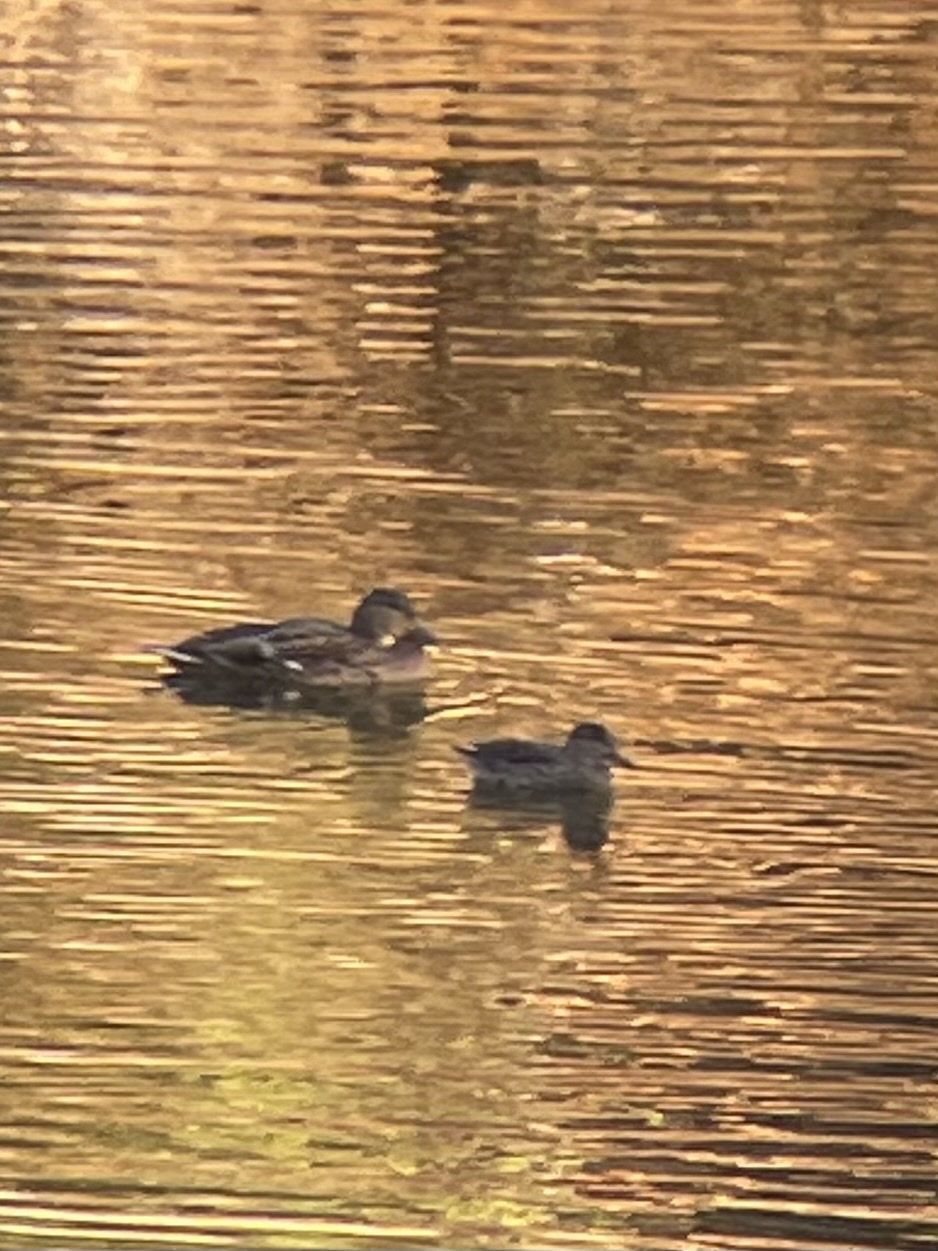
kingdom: Animalia
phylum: Chordata
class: Aves
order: Anseriformes
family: Anatidae
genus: Anas
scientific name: Anas crecca
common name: Eurasian teal
